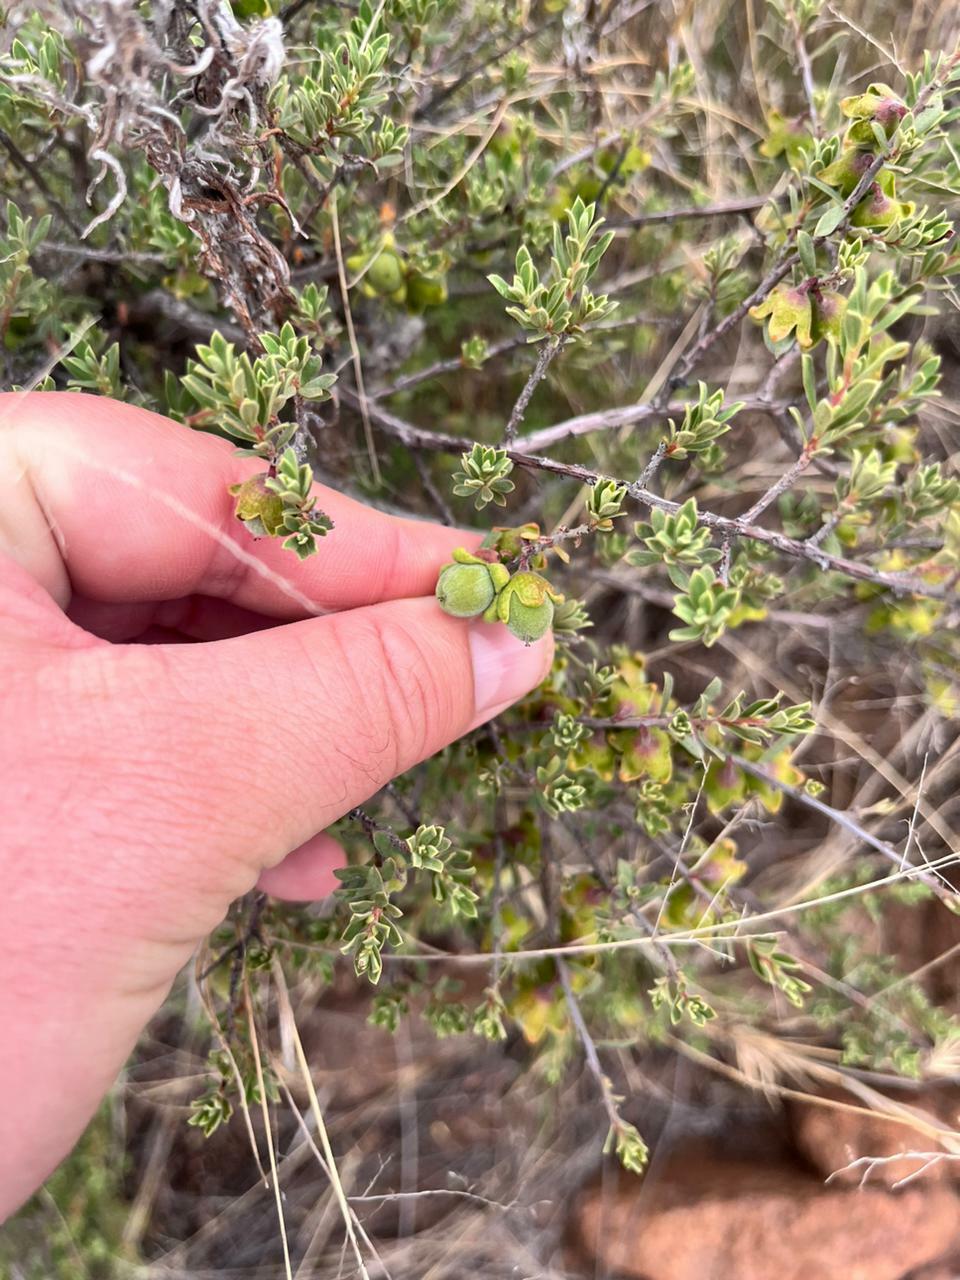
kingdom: Plantae
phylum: Tracheophyta
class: Magnoliopsida
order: Ericales
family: Ebenaceae
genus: Diospyros
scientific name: Diospyros pubescens
